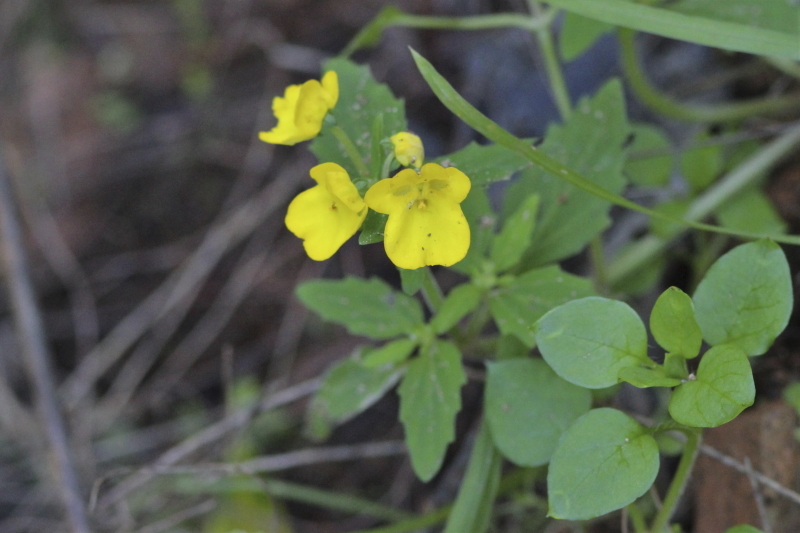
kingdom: Plantae
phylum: Tracheophyta
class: Magnoliopsida
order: Lamiales
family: Scrophulariaceae
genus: Hemimeris
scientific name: Hemimeris racemosa
